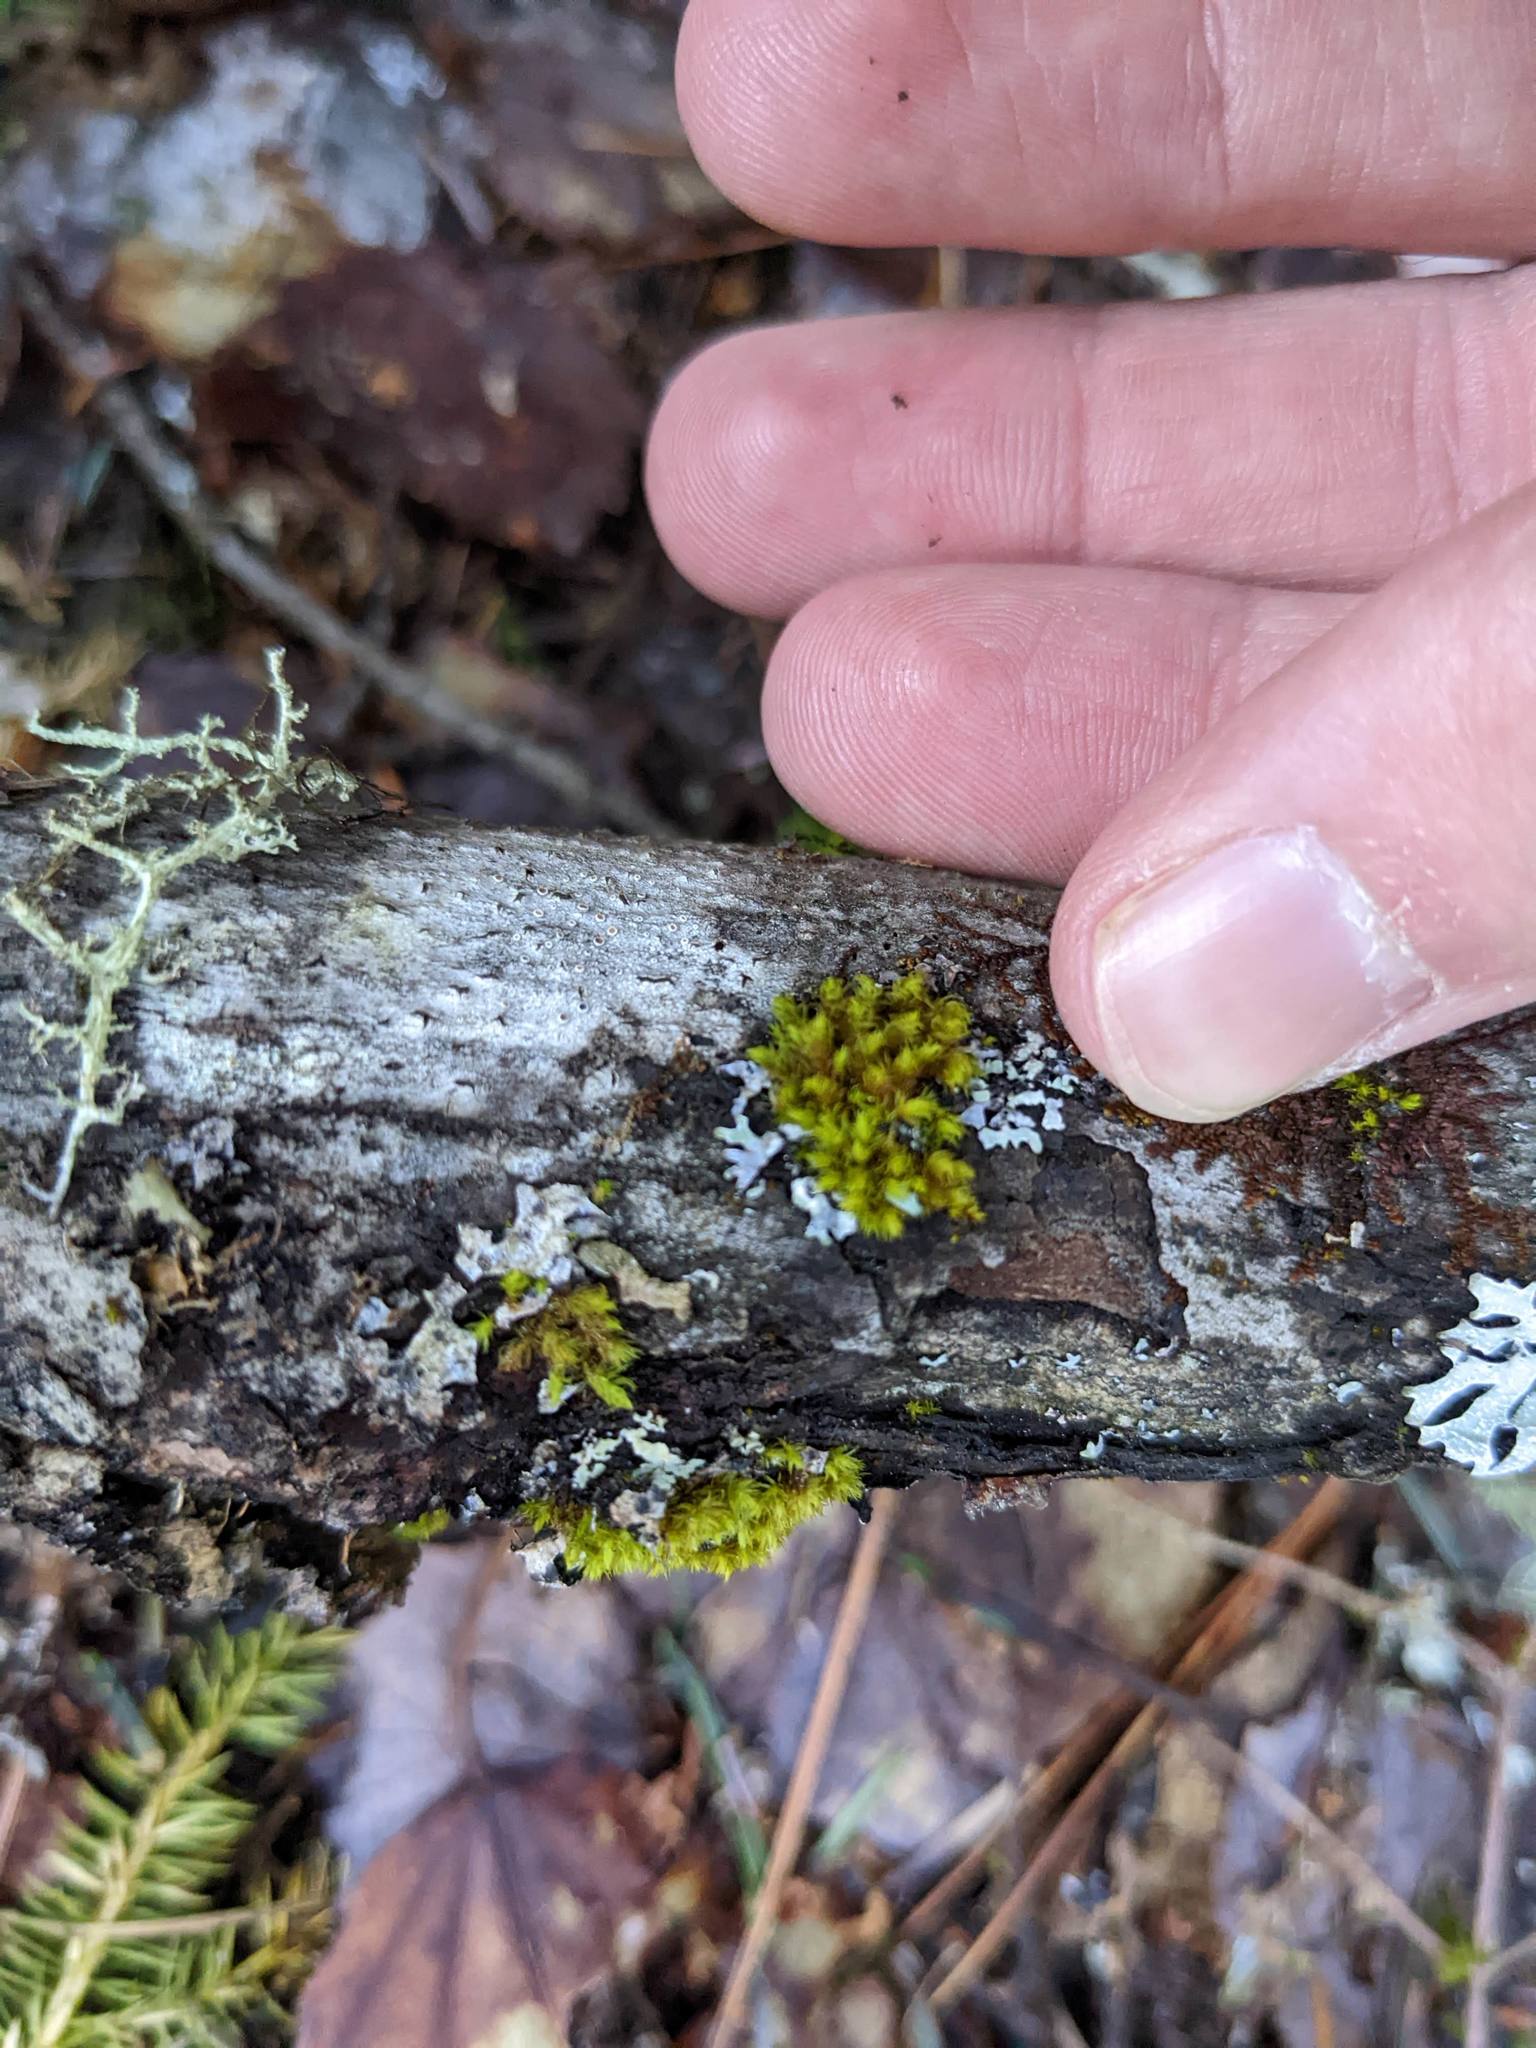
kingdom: Plantae
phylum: Bryophyta
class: Bryopsida
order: Orthotrichales
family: Orthotrichaceae
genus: Ulota
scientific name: Ulota crispa
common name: Crisped pincushion moss
